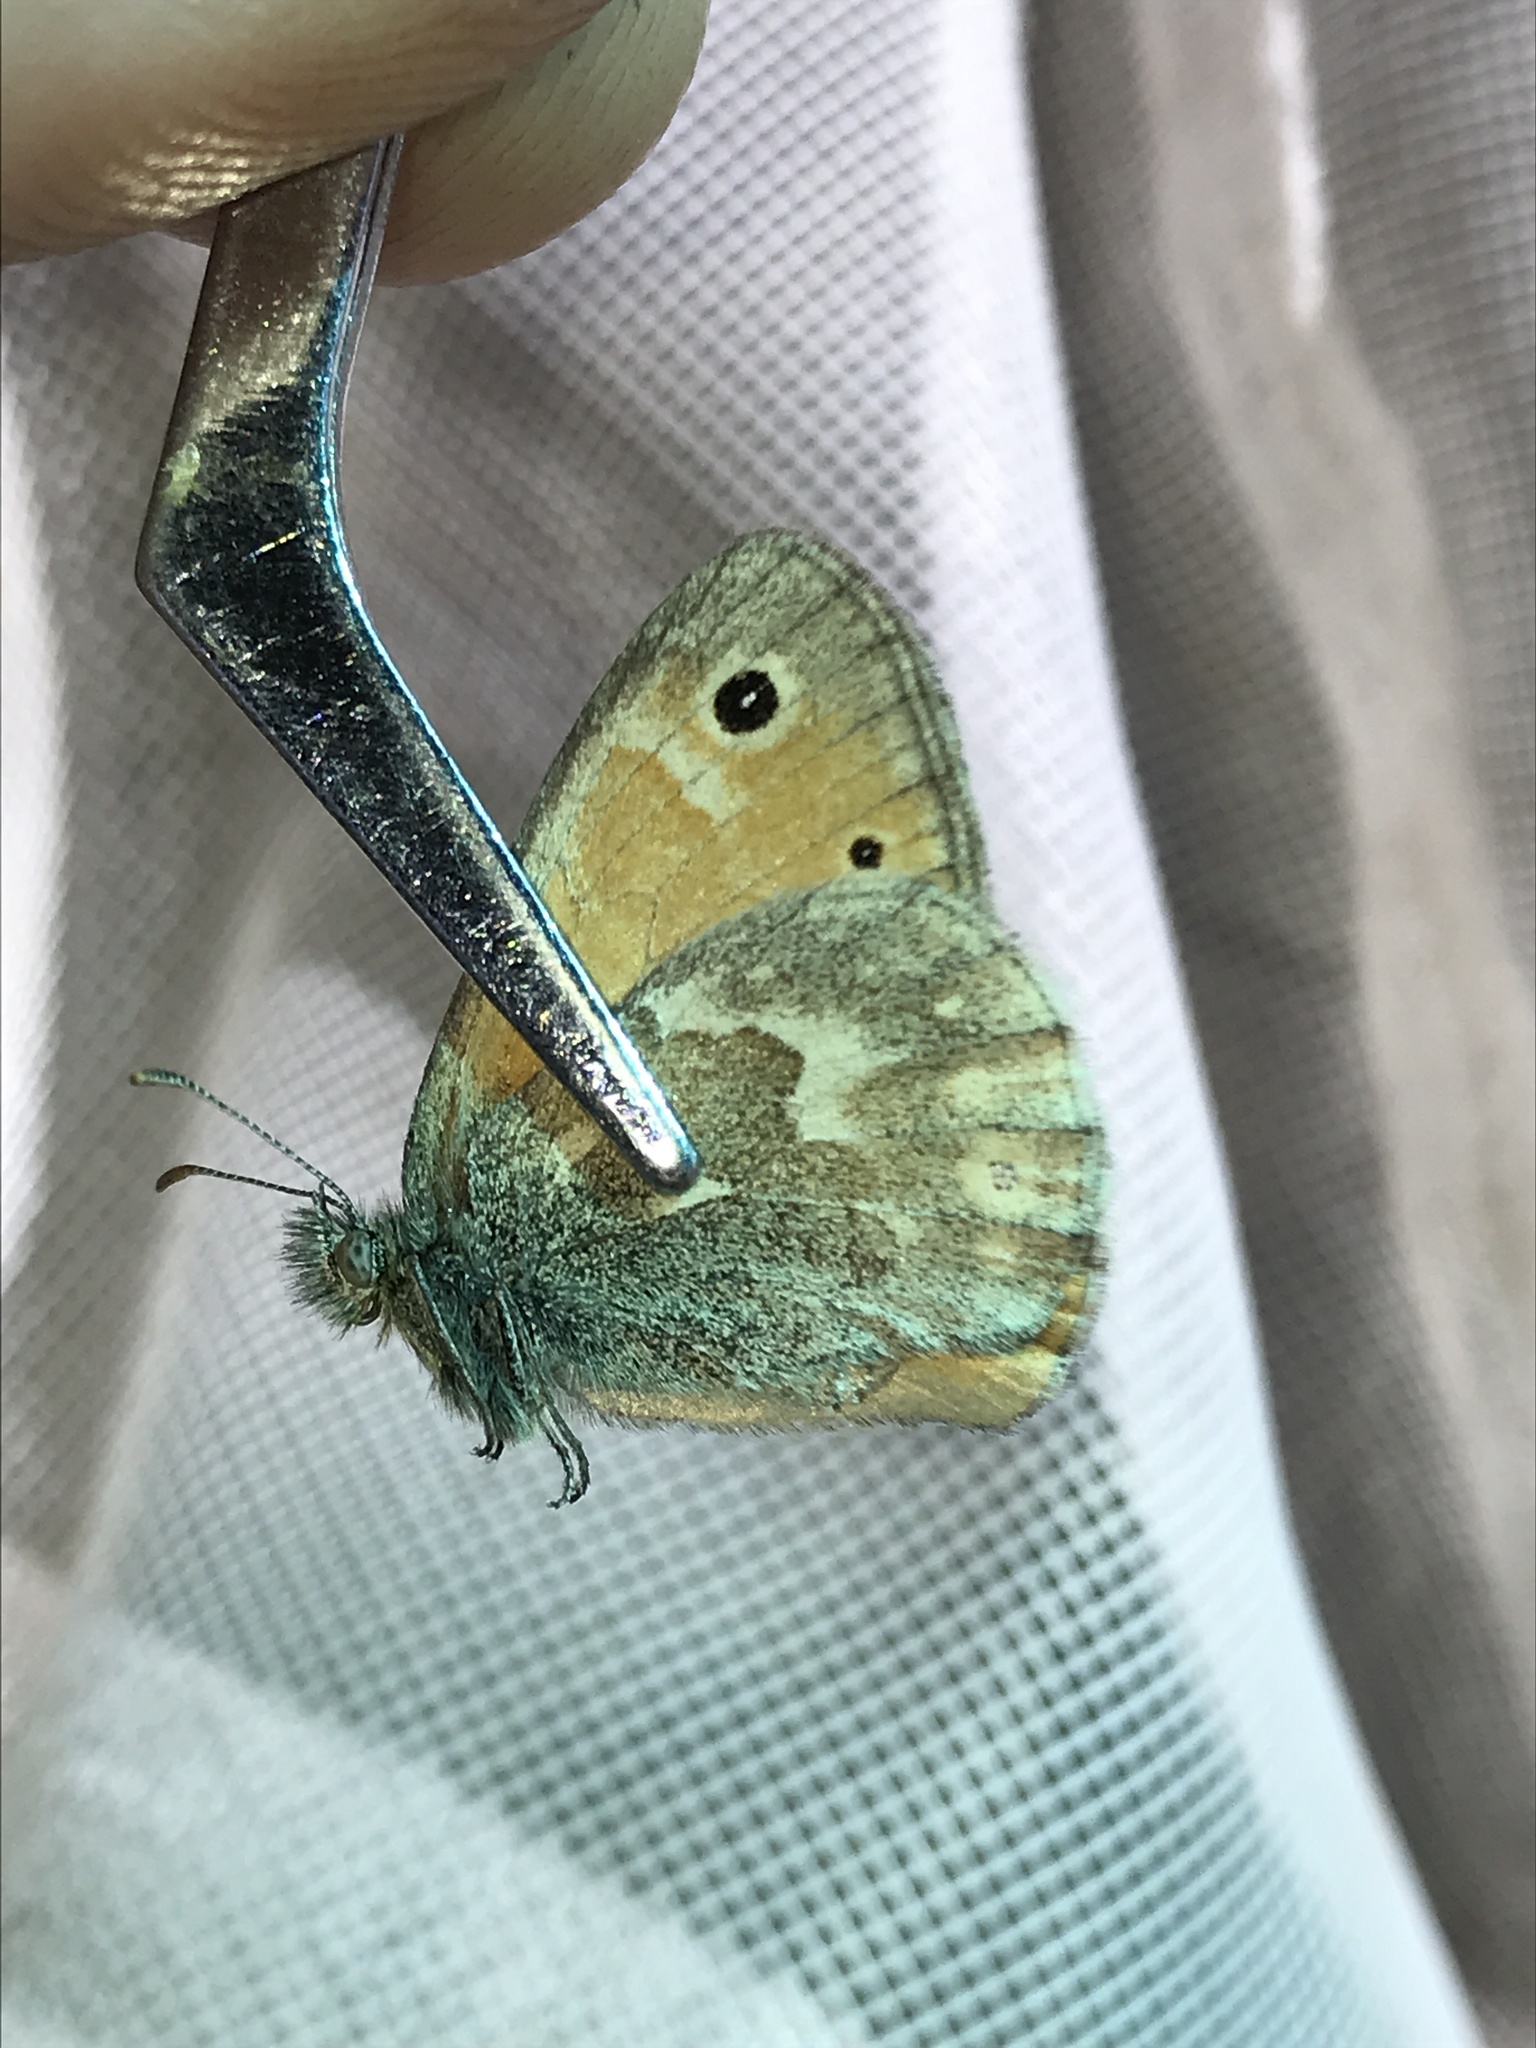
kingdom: Animalia
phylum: Arthropoda
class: Insecta
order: Lepidoptera
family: Nymphalidae
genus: Coenonympha
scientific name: Coenonympha california
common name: Common ringlet
